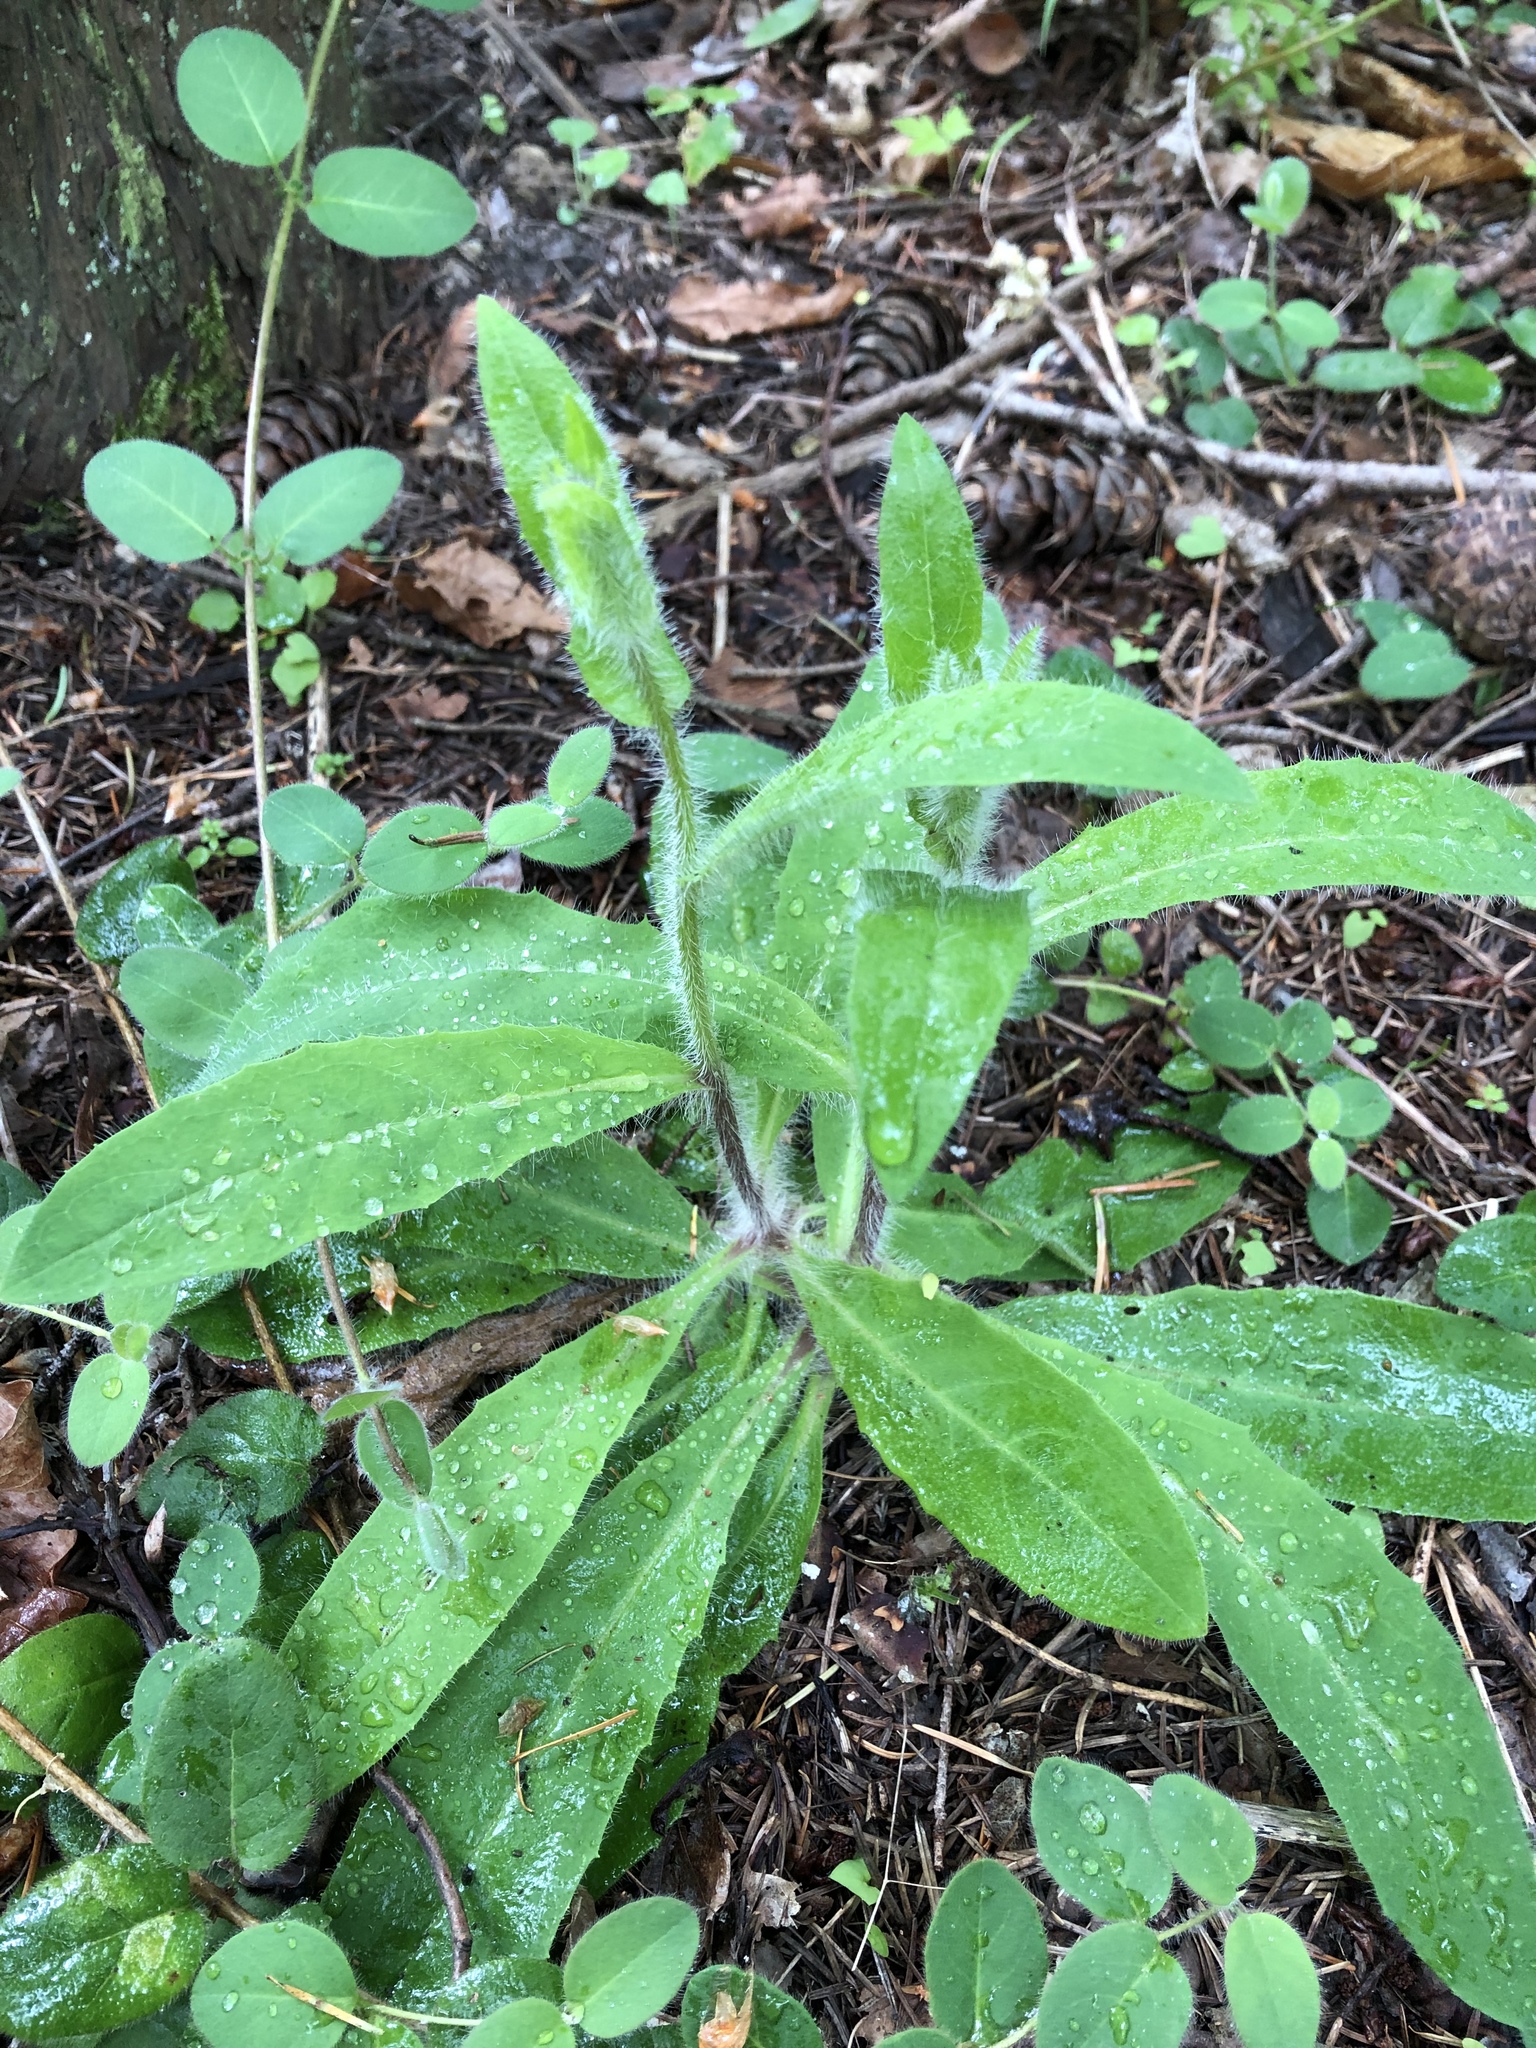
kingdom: Plantae
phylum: Tracheophyta
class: Magnoliopsida
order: Asterales
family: Asteraceae
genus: Hieracium
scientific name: Hieracium albiflorum
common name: White hawkweed
